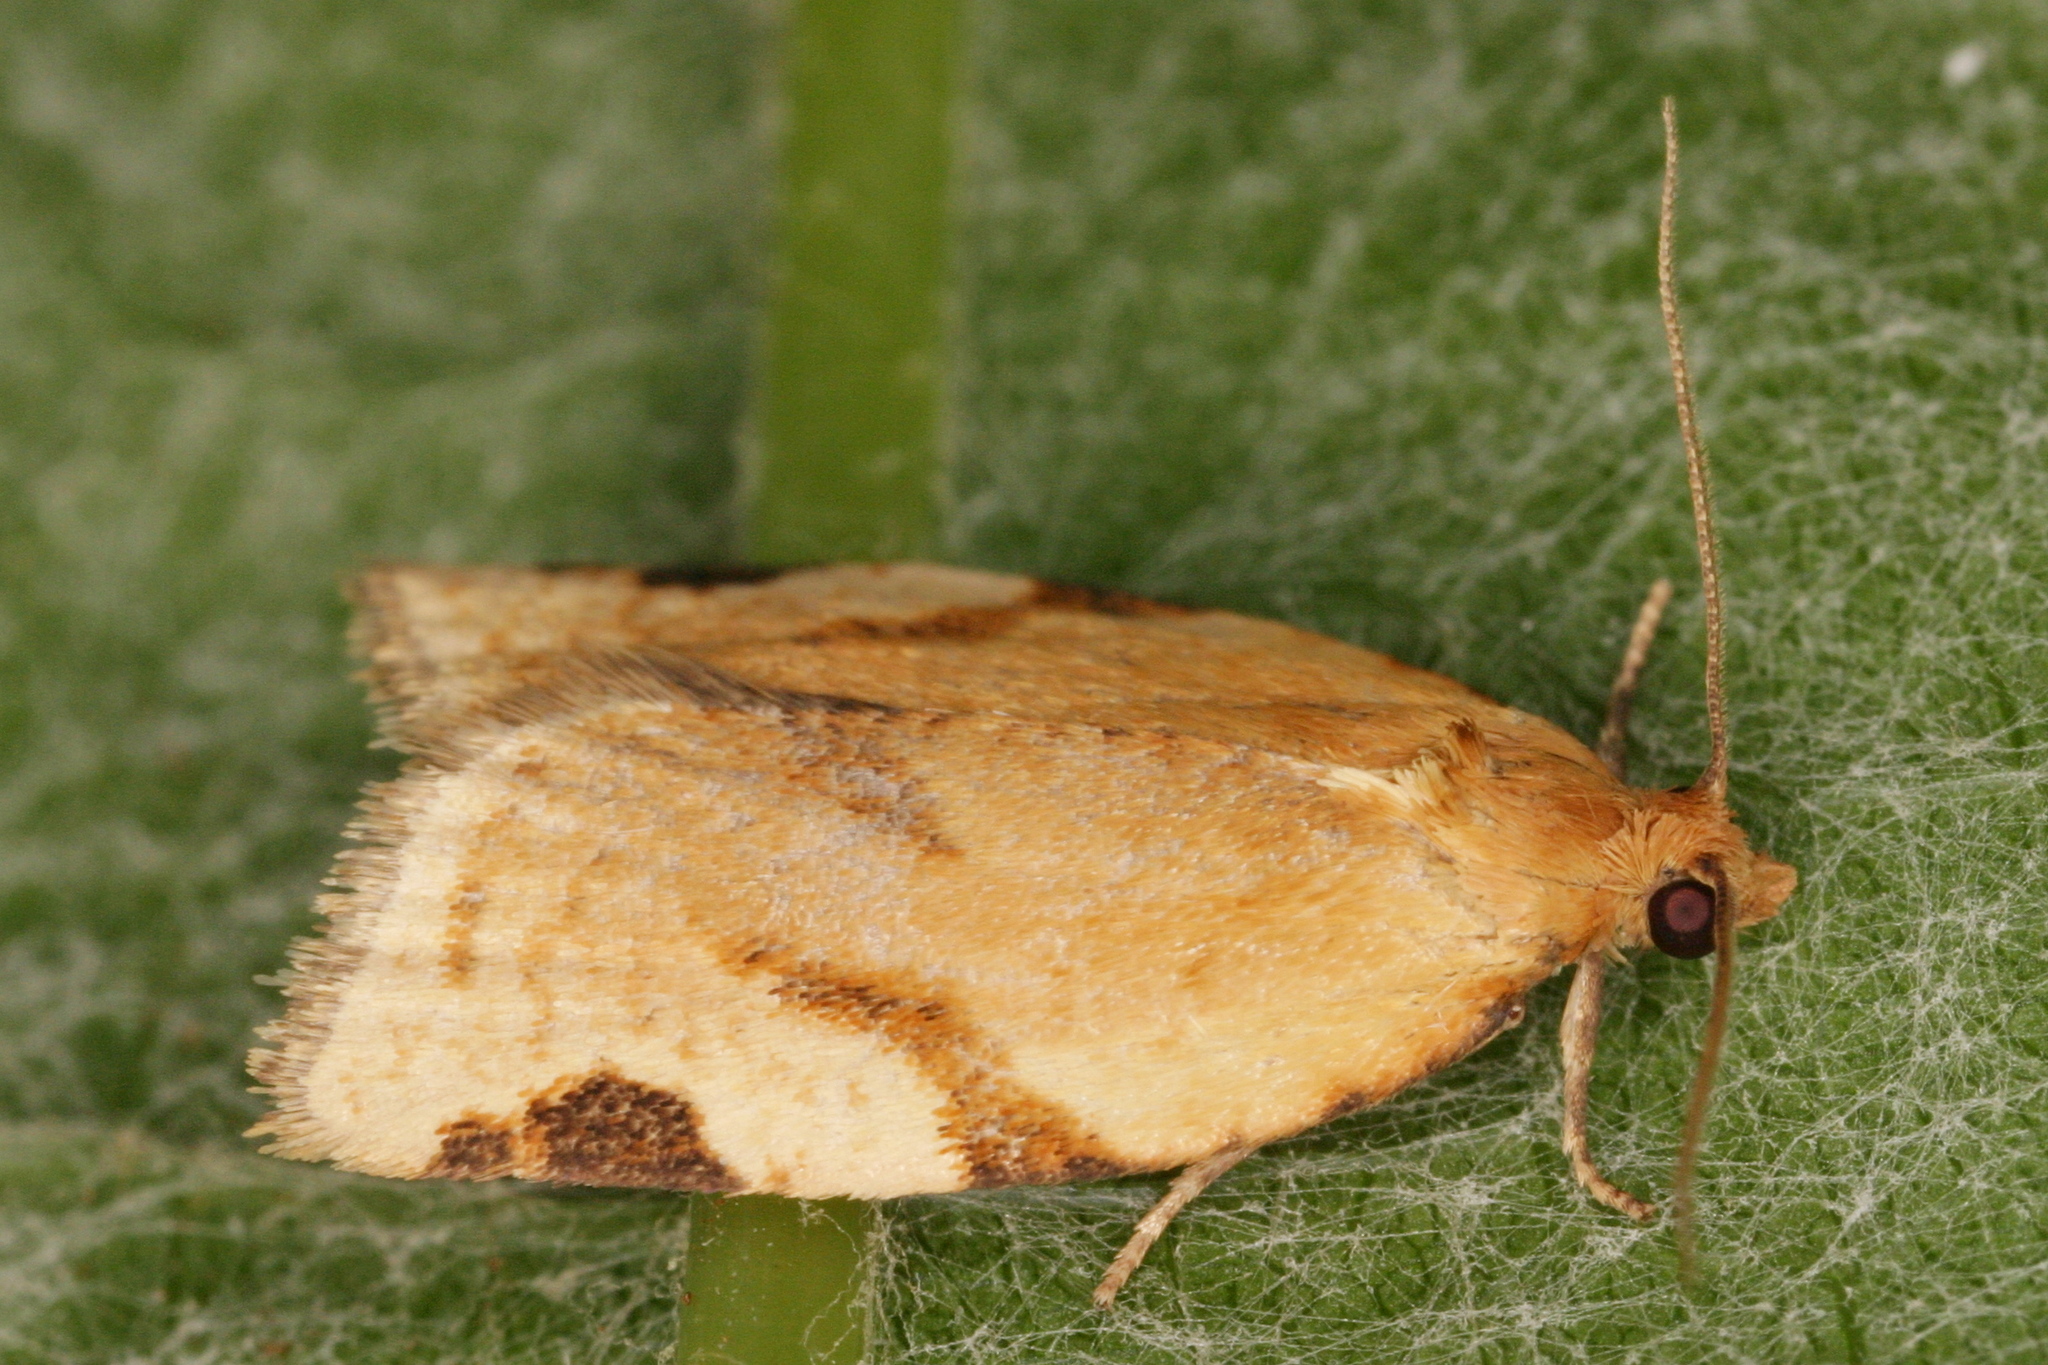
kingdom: Animalia
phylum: Arthropoda
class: Insecta
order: Lepidoptera
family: Tortricidae
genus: Paramesia
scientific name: Paramesia gnomana
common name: Small straw twist
